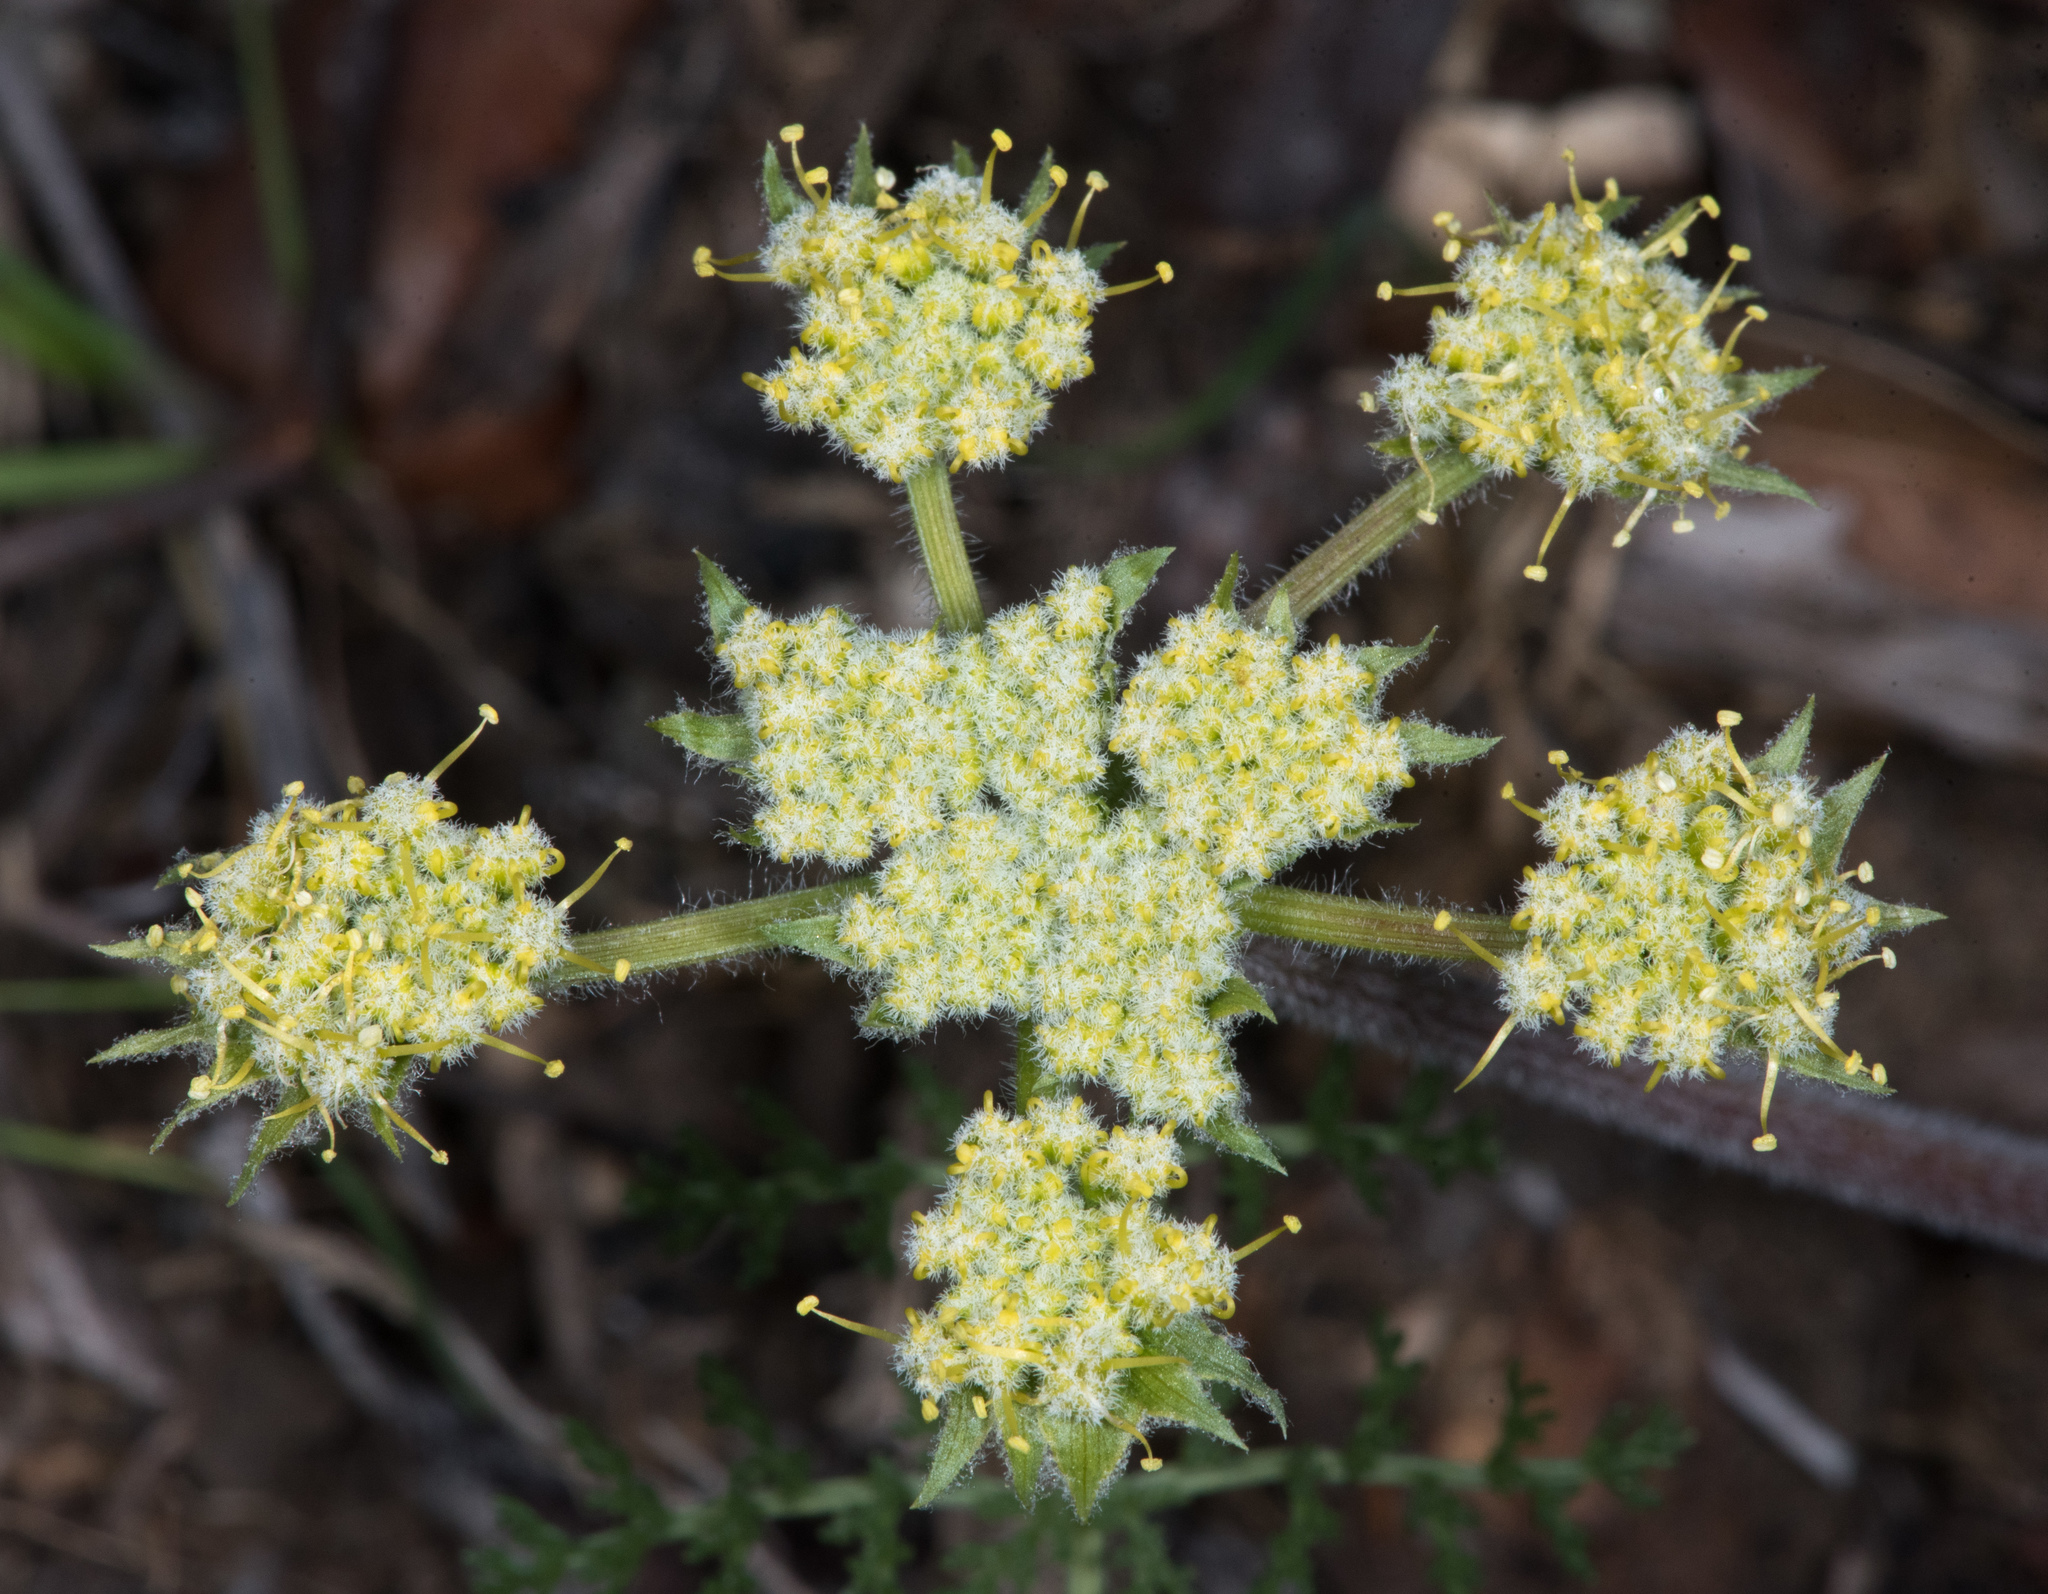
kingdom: Plantae
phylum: Tracheophyta
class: Magnoliopsida
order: Apiales
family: Apiaceae
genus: Lomatium
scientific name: Lomatium dasycarpum
